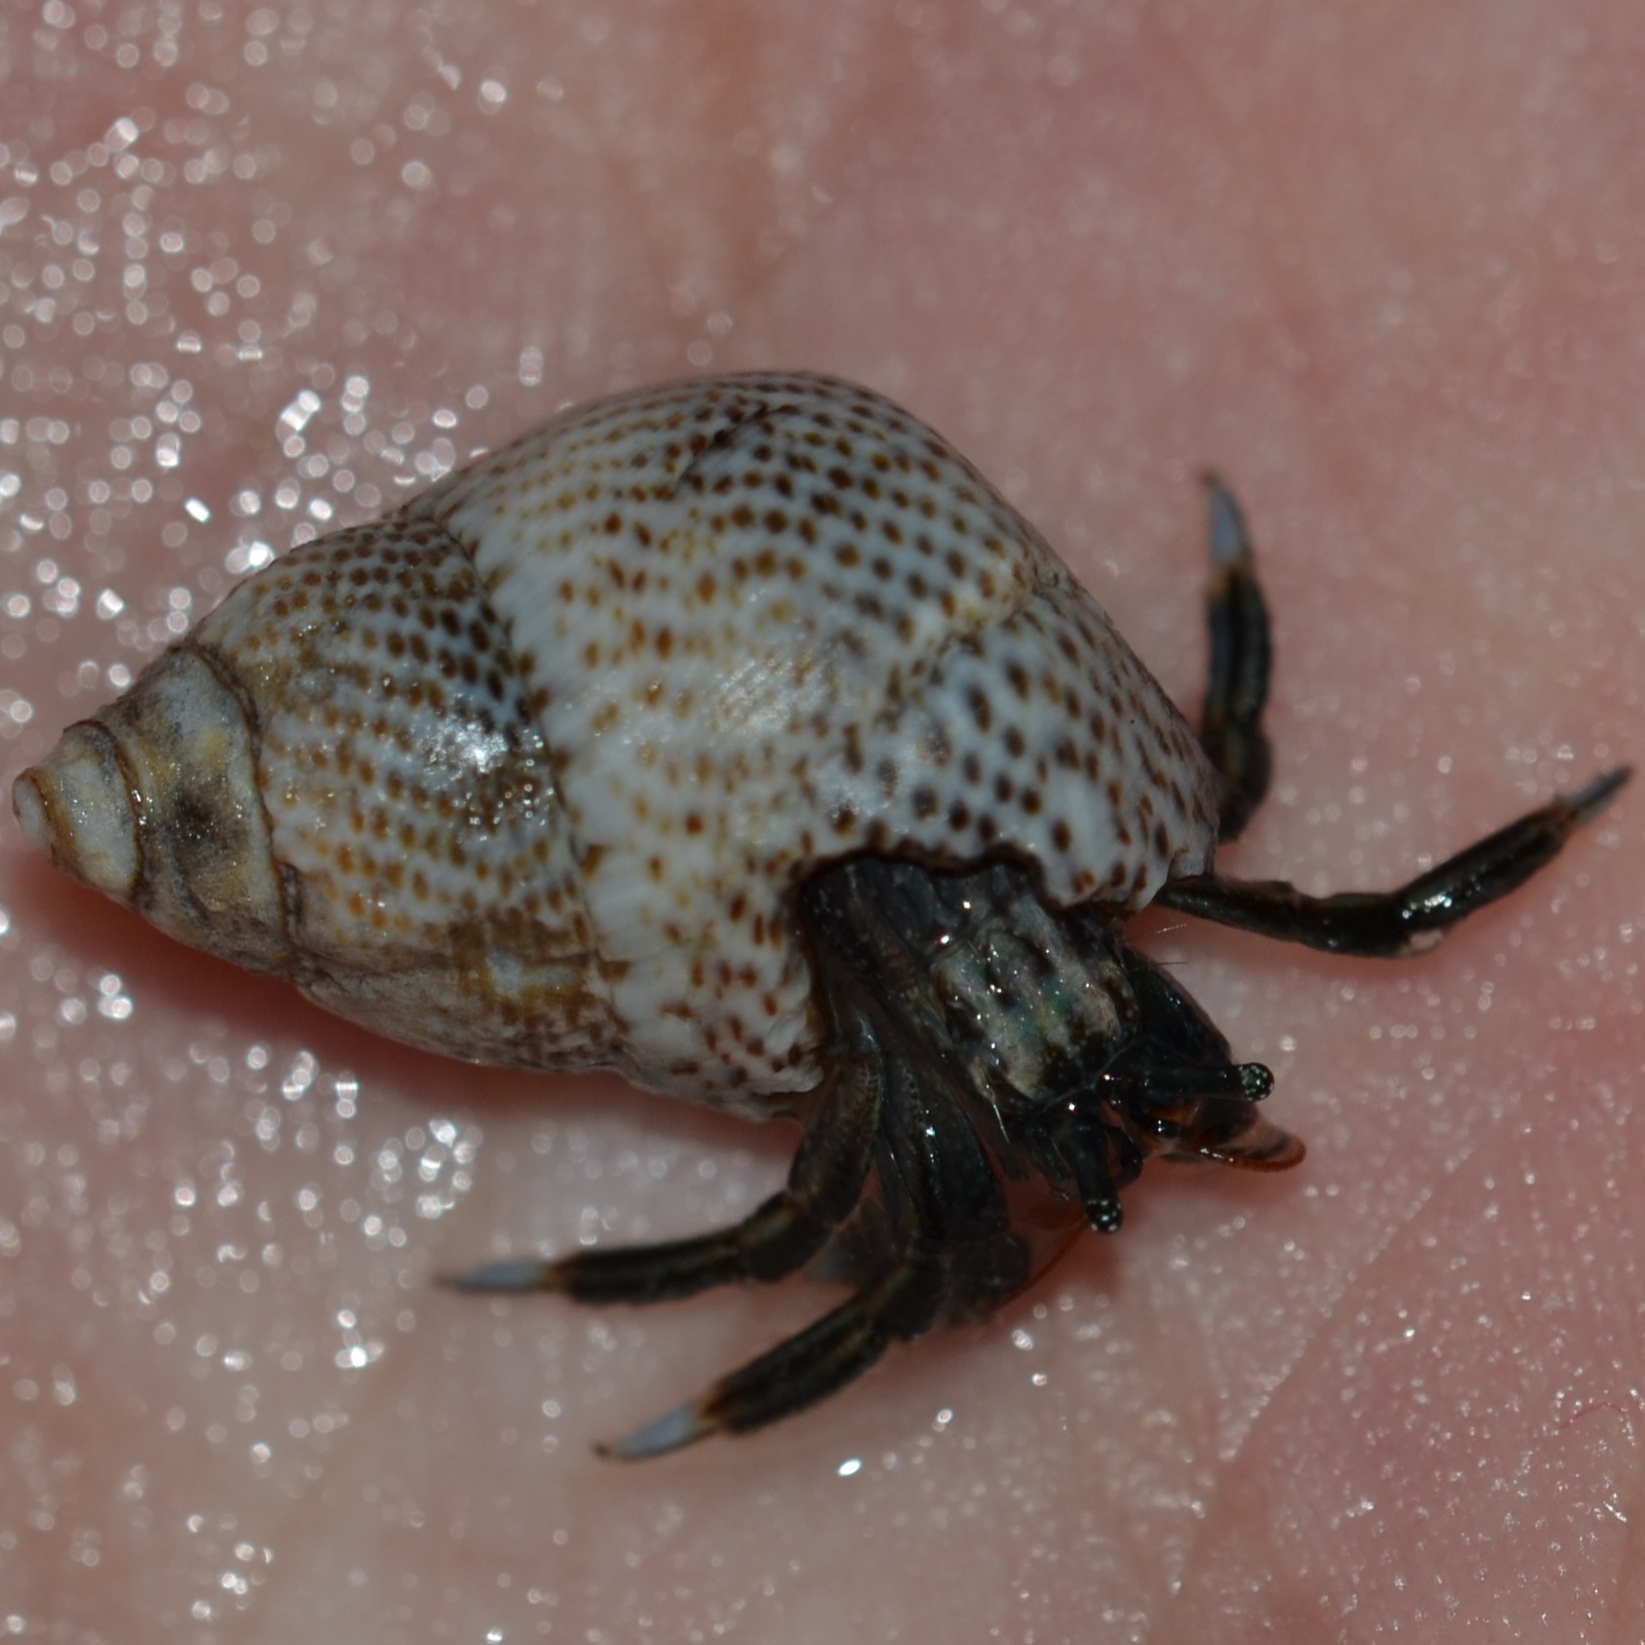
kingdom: Animalia
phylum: Arthropoda
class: Malacostraca
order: Decapoda
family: Diogenidae
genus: Clibanarius
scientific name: Clibanarius zebra
